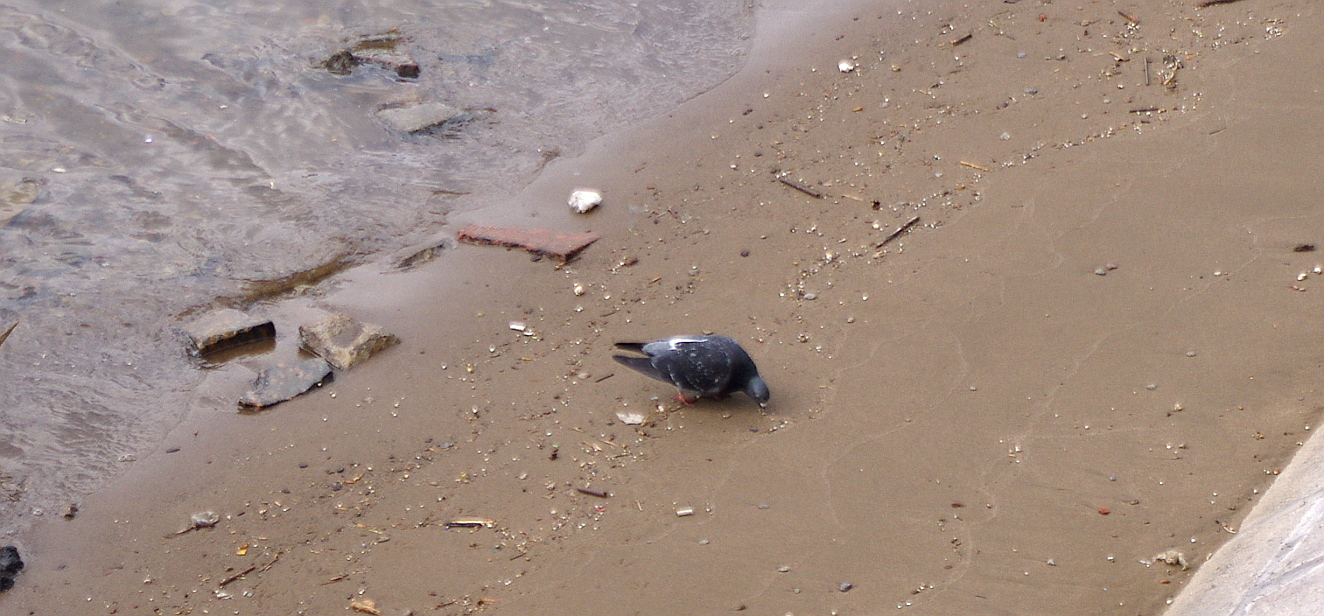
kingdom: Animalia
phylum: Chordata
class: Aves
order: Columbiformes
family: Columbidae
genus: Columba
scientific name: Columba livia
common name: Rock pigeon
